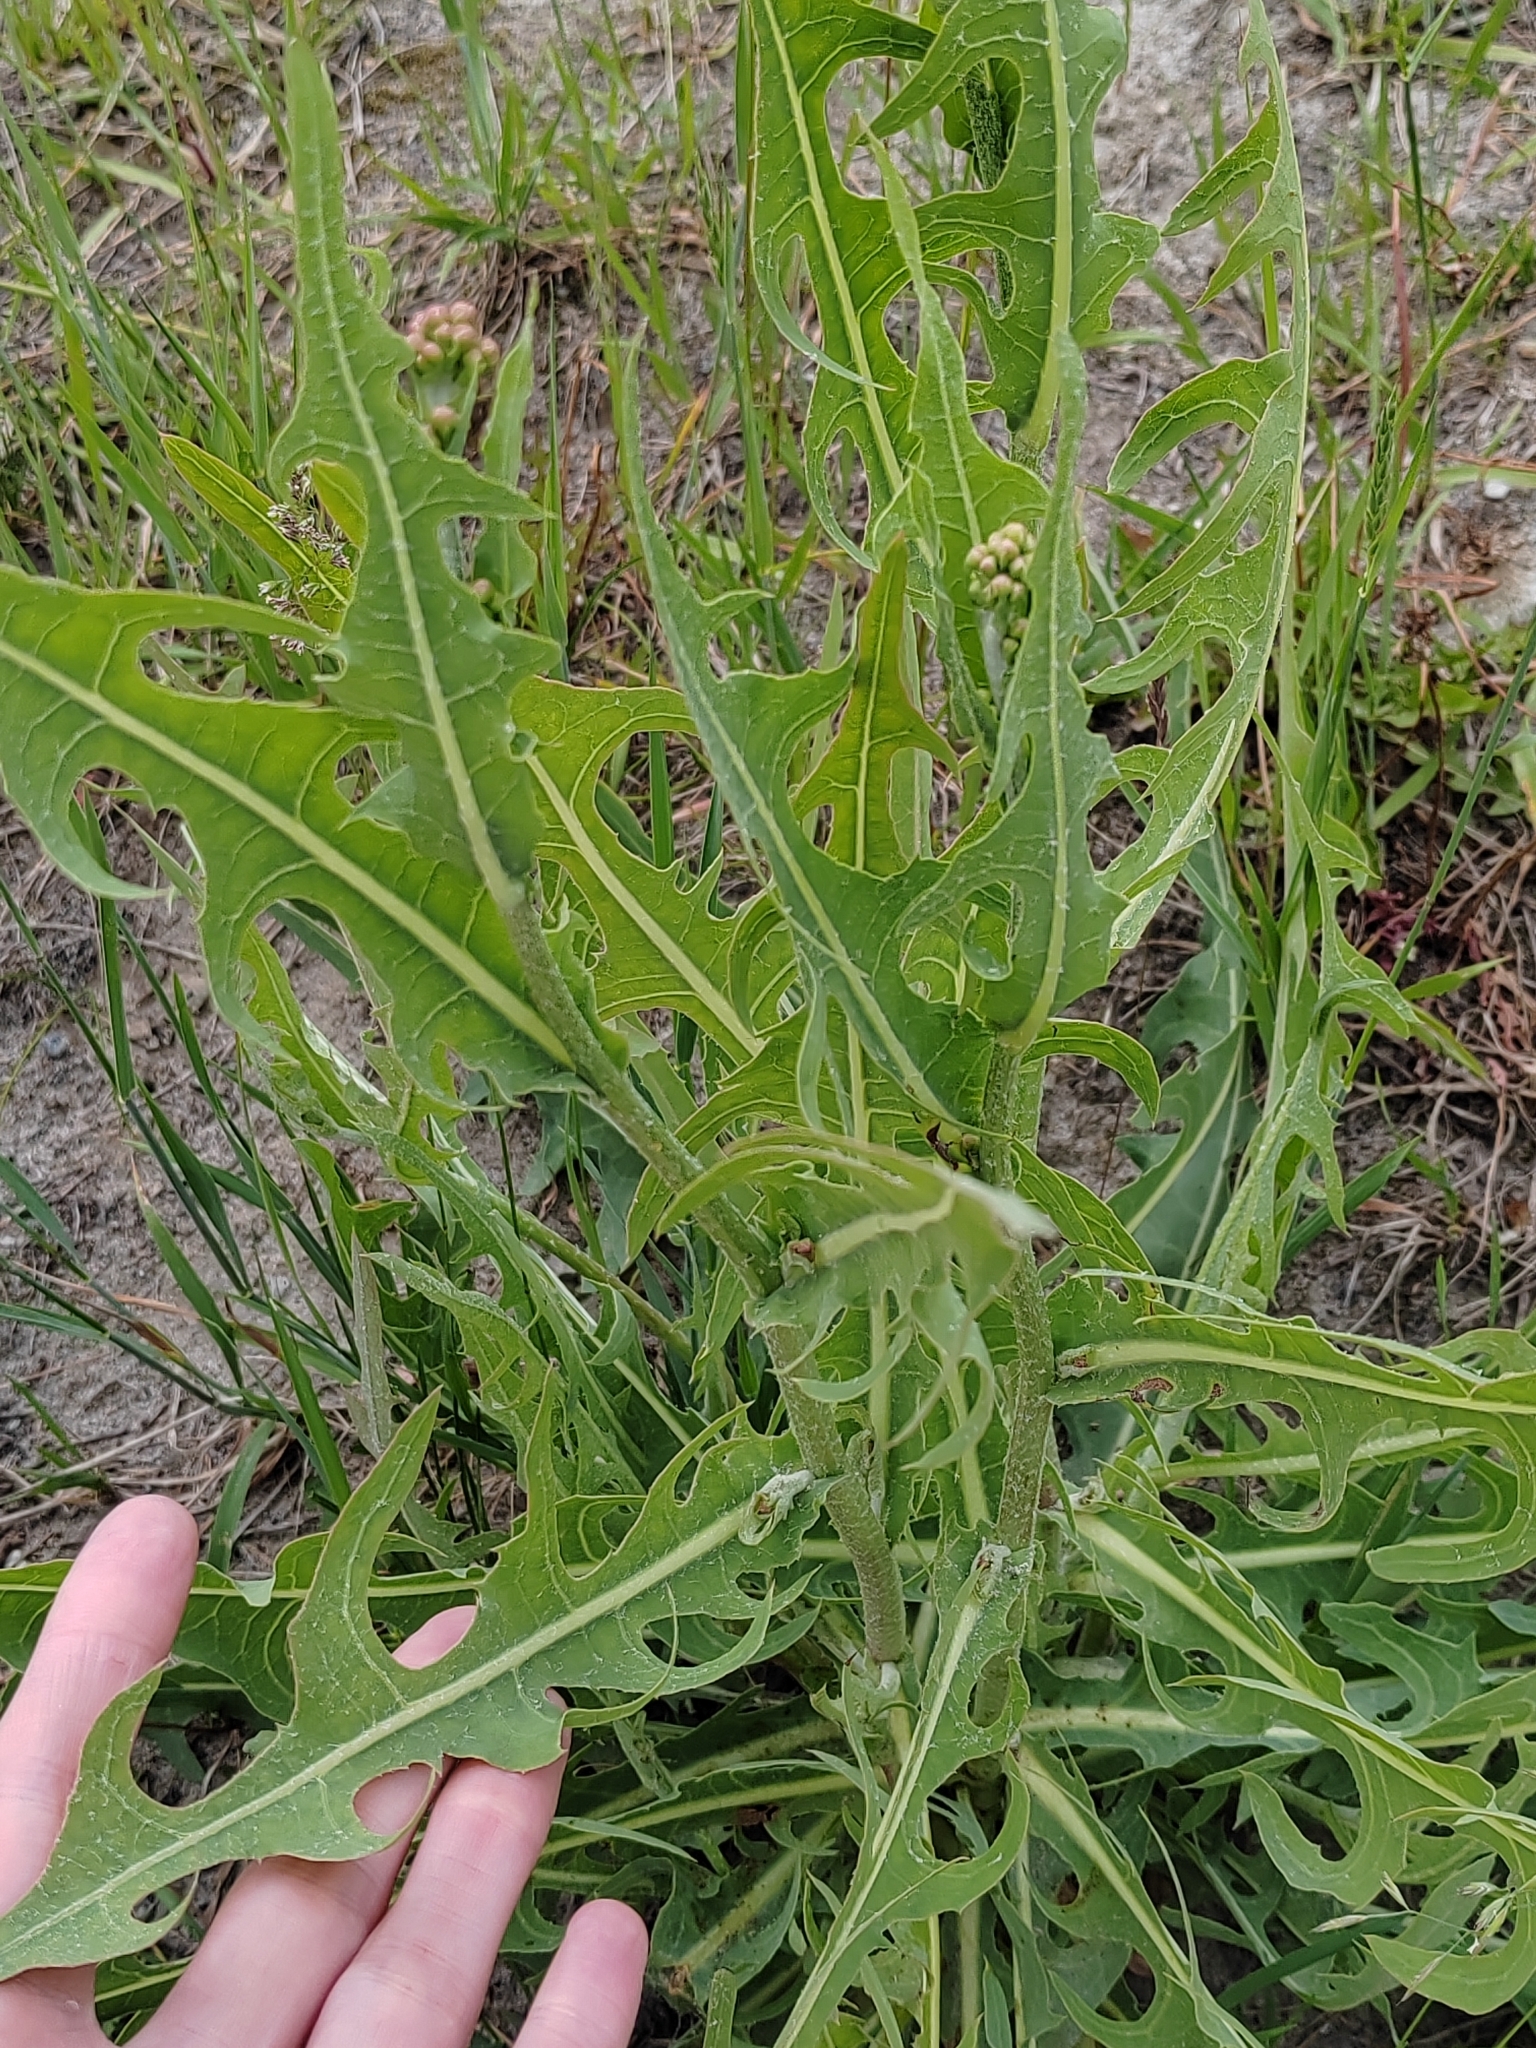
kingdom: Plantae
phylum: Tracheophyta
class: Magnoliopsida
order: Asterales
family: Asteraceae
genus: Lactuca
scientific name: Lactuca tatarica
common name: Blue lettuce
